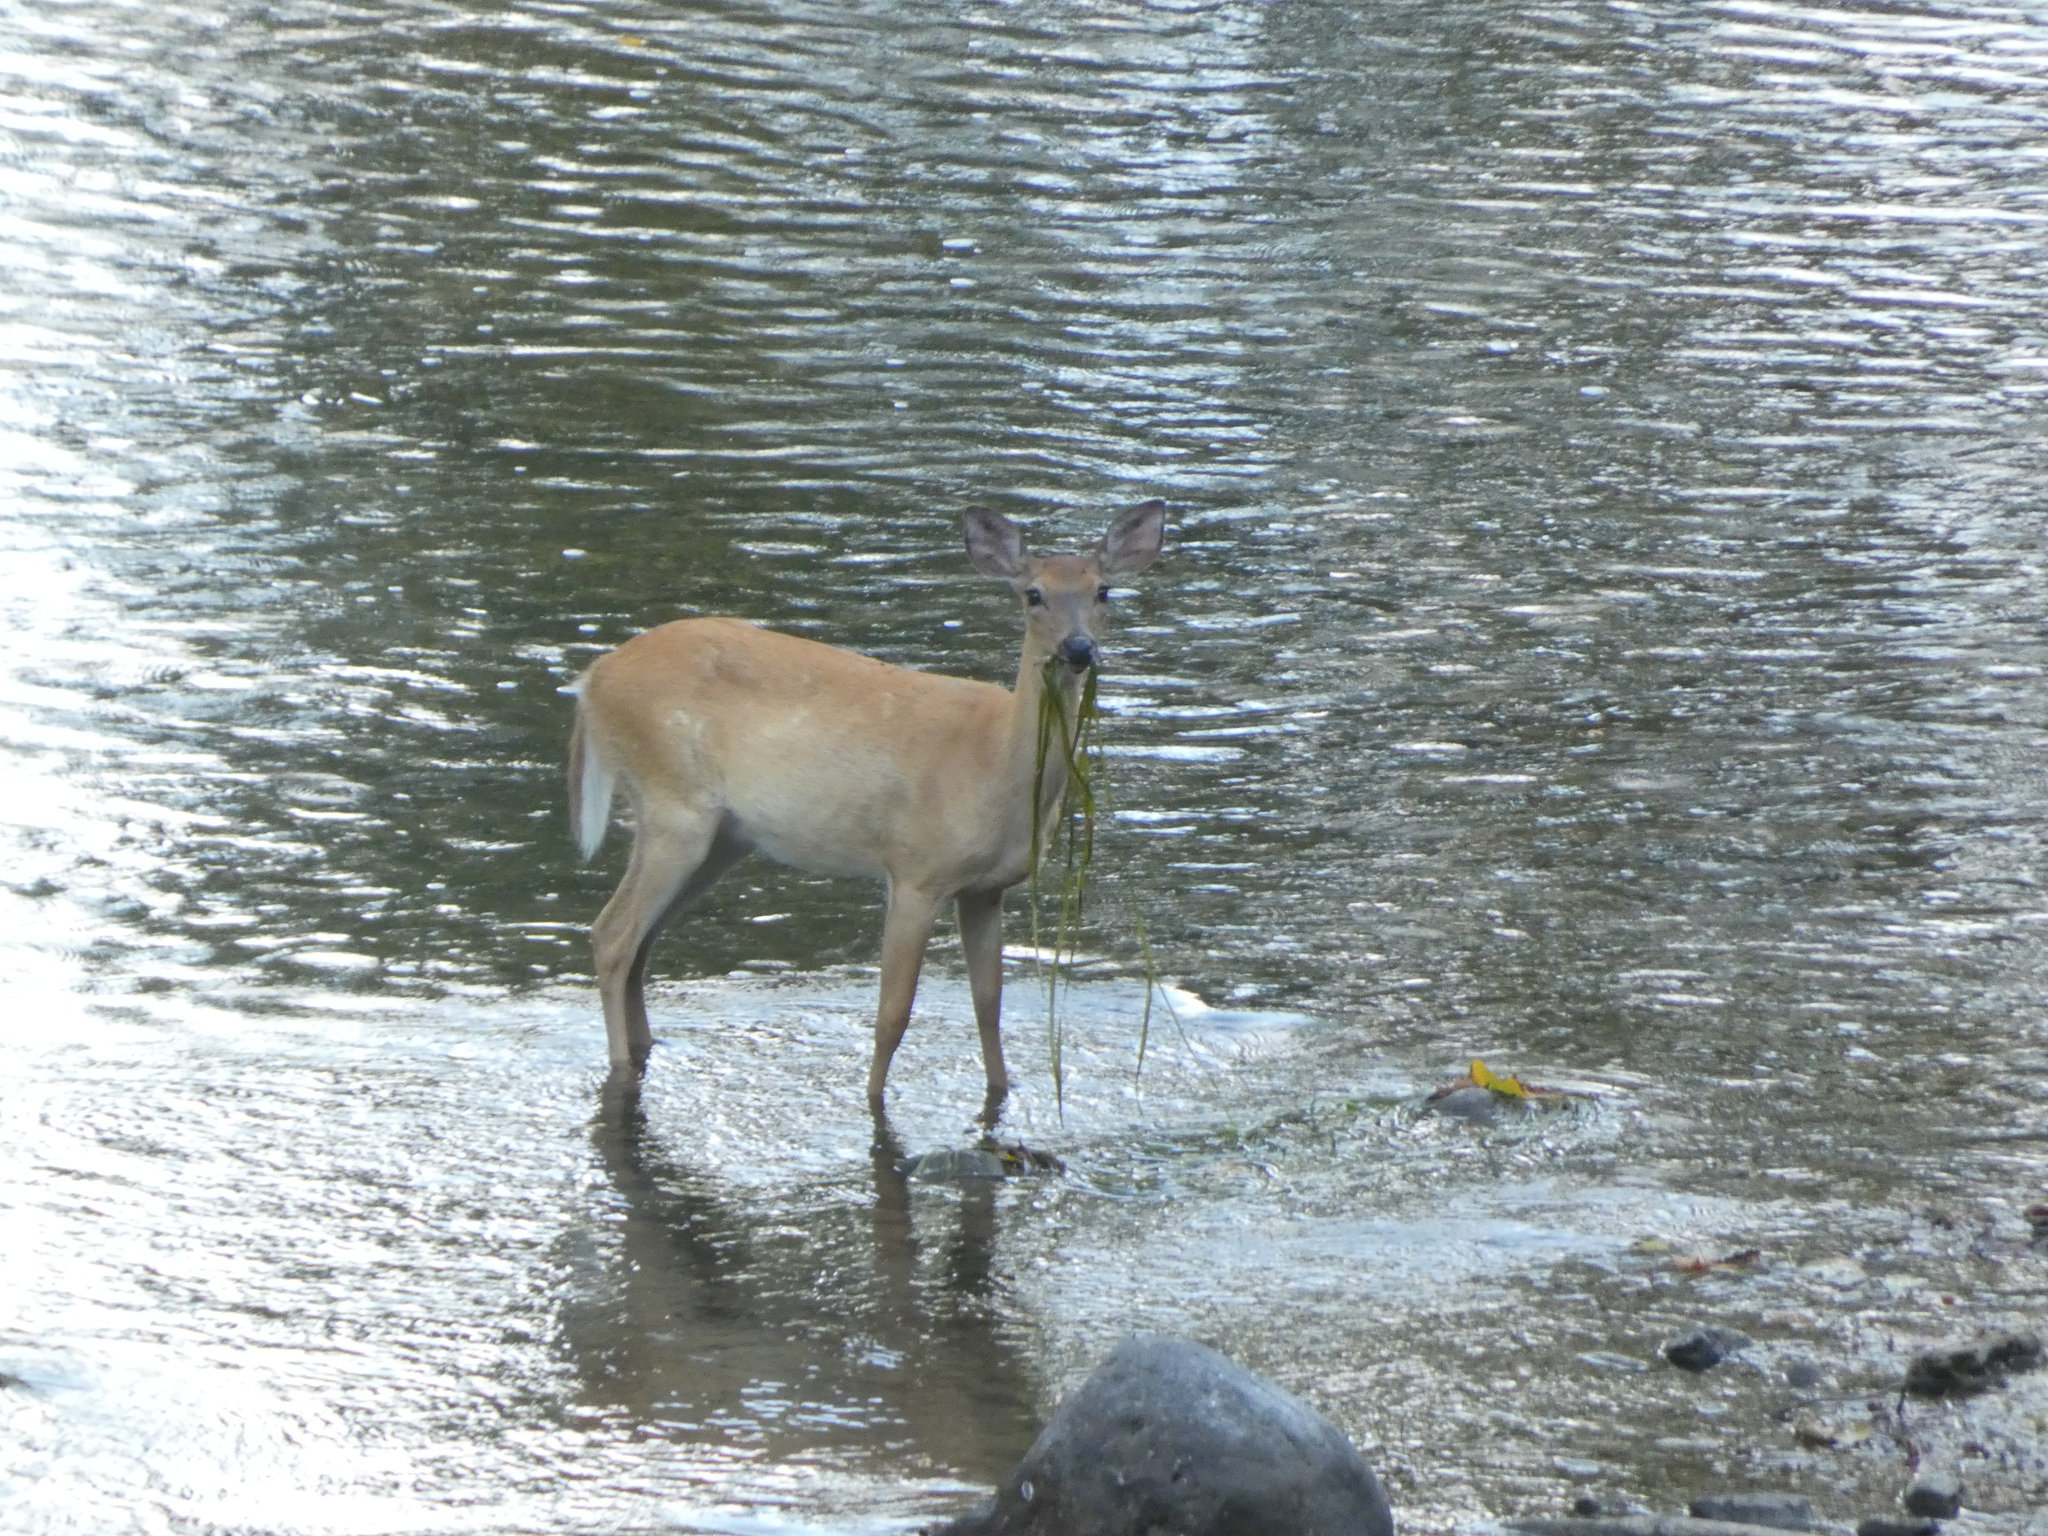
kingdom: Animalia
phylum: Chordata
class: Mammalia
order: Artiodactyla
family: Cervidae
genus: Odocoileus
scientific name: Odocoileus virginianus
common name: White-tailed deer
